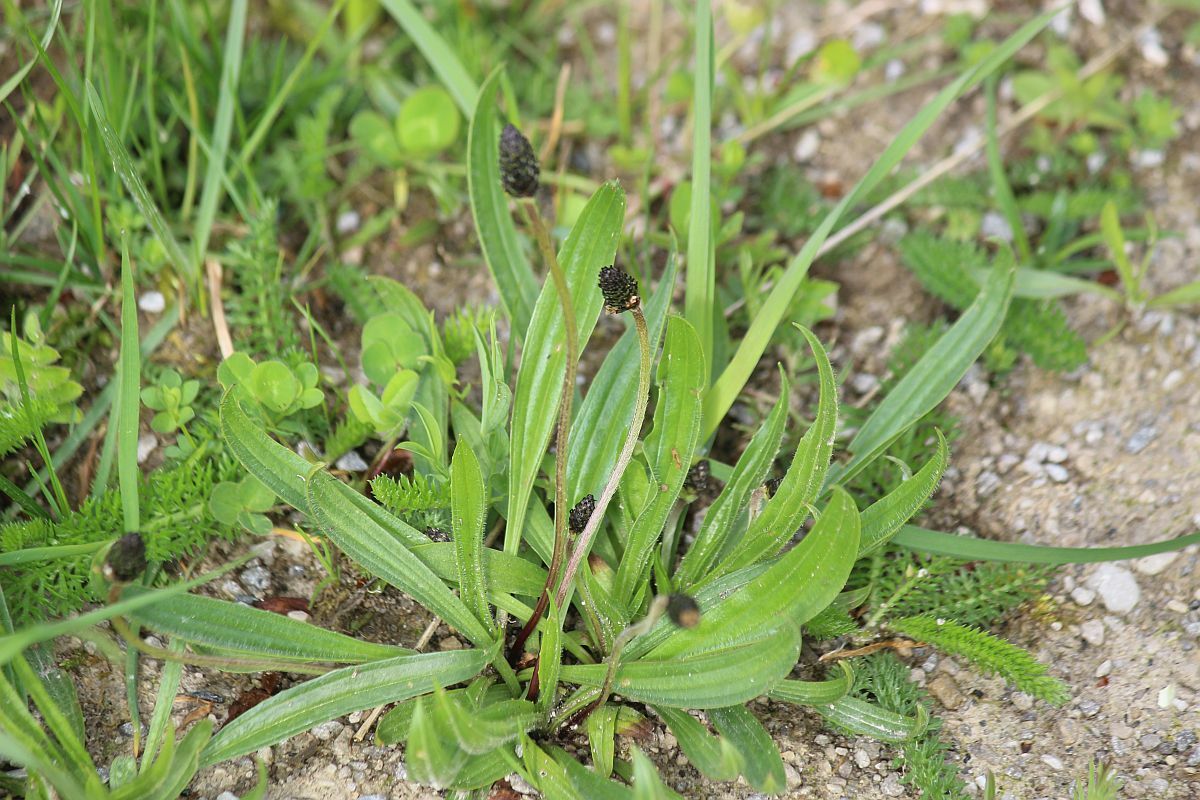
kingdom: Plantae
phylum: Tracheophyta
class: Magnoliopsida
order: Lamiales
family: Plantaginaceae
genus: Plantago
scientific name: Plantago lanceolata
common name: Ribwort plantain
